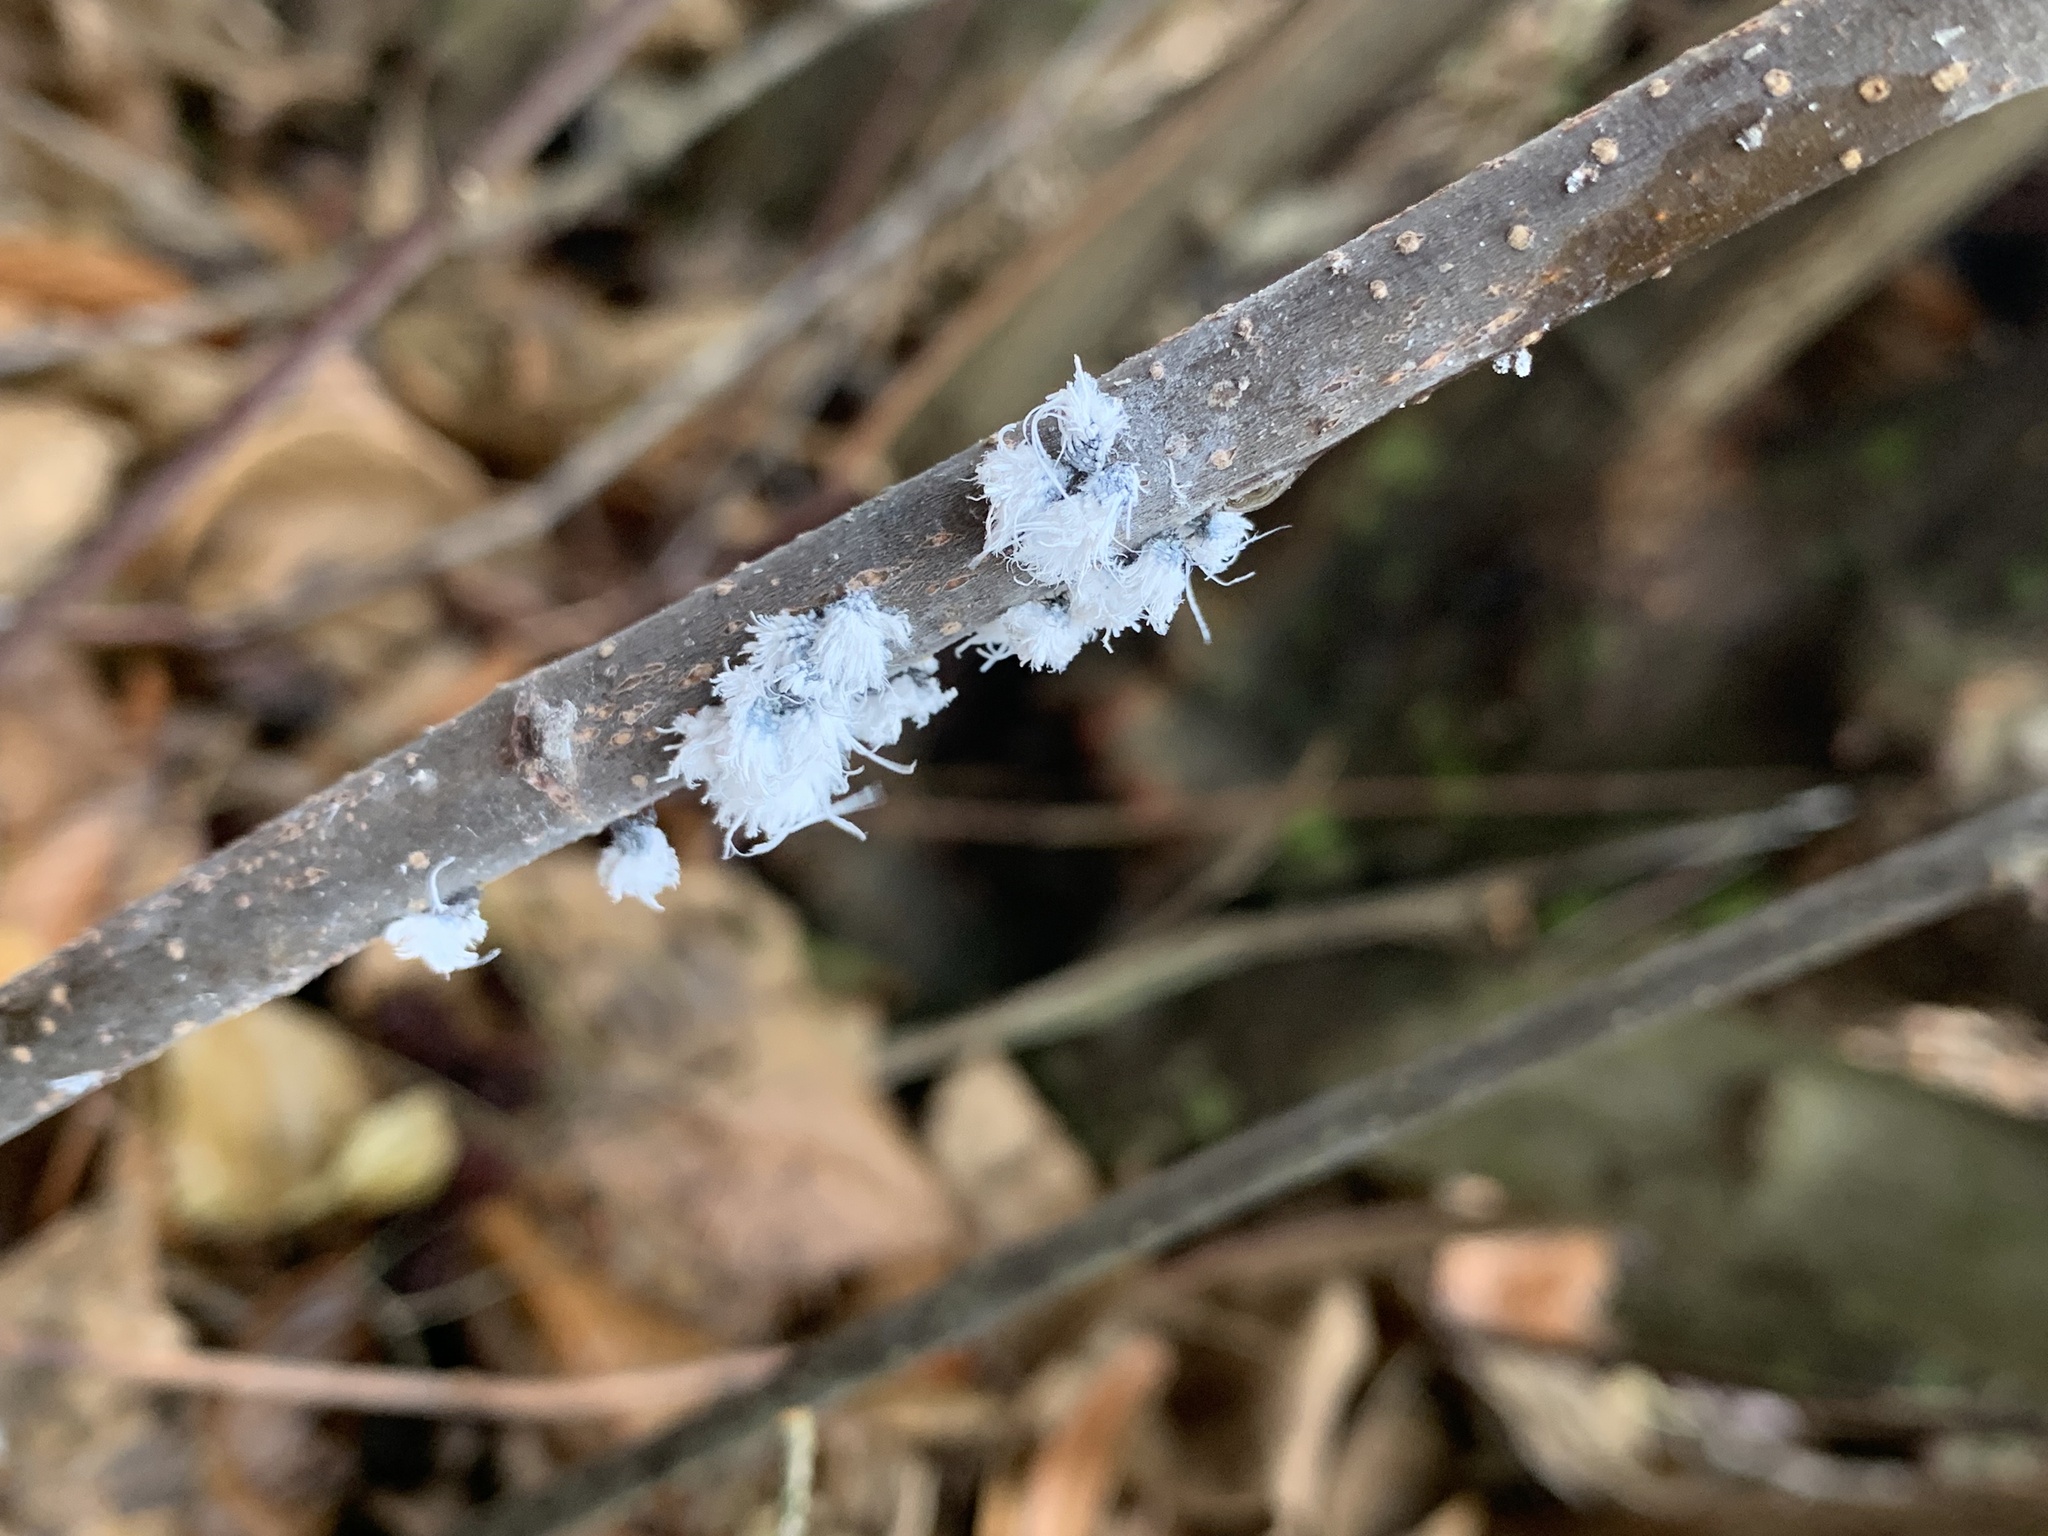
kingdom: Animalia
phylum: Arthropoda
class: Insecta
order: Hemiptera
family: Aphididae
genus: Prociphilus
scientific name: Prociphilus tessellatus
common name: Woolly alder aphid
